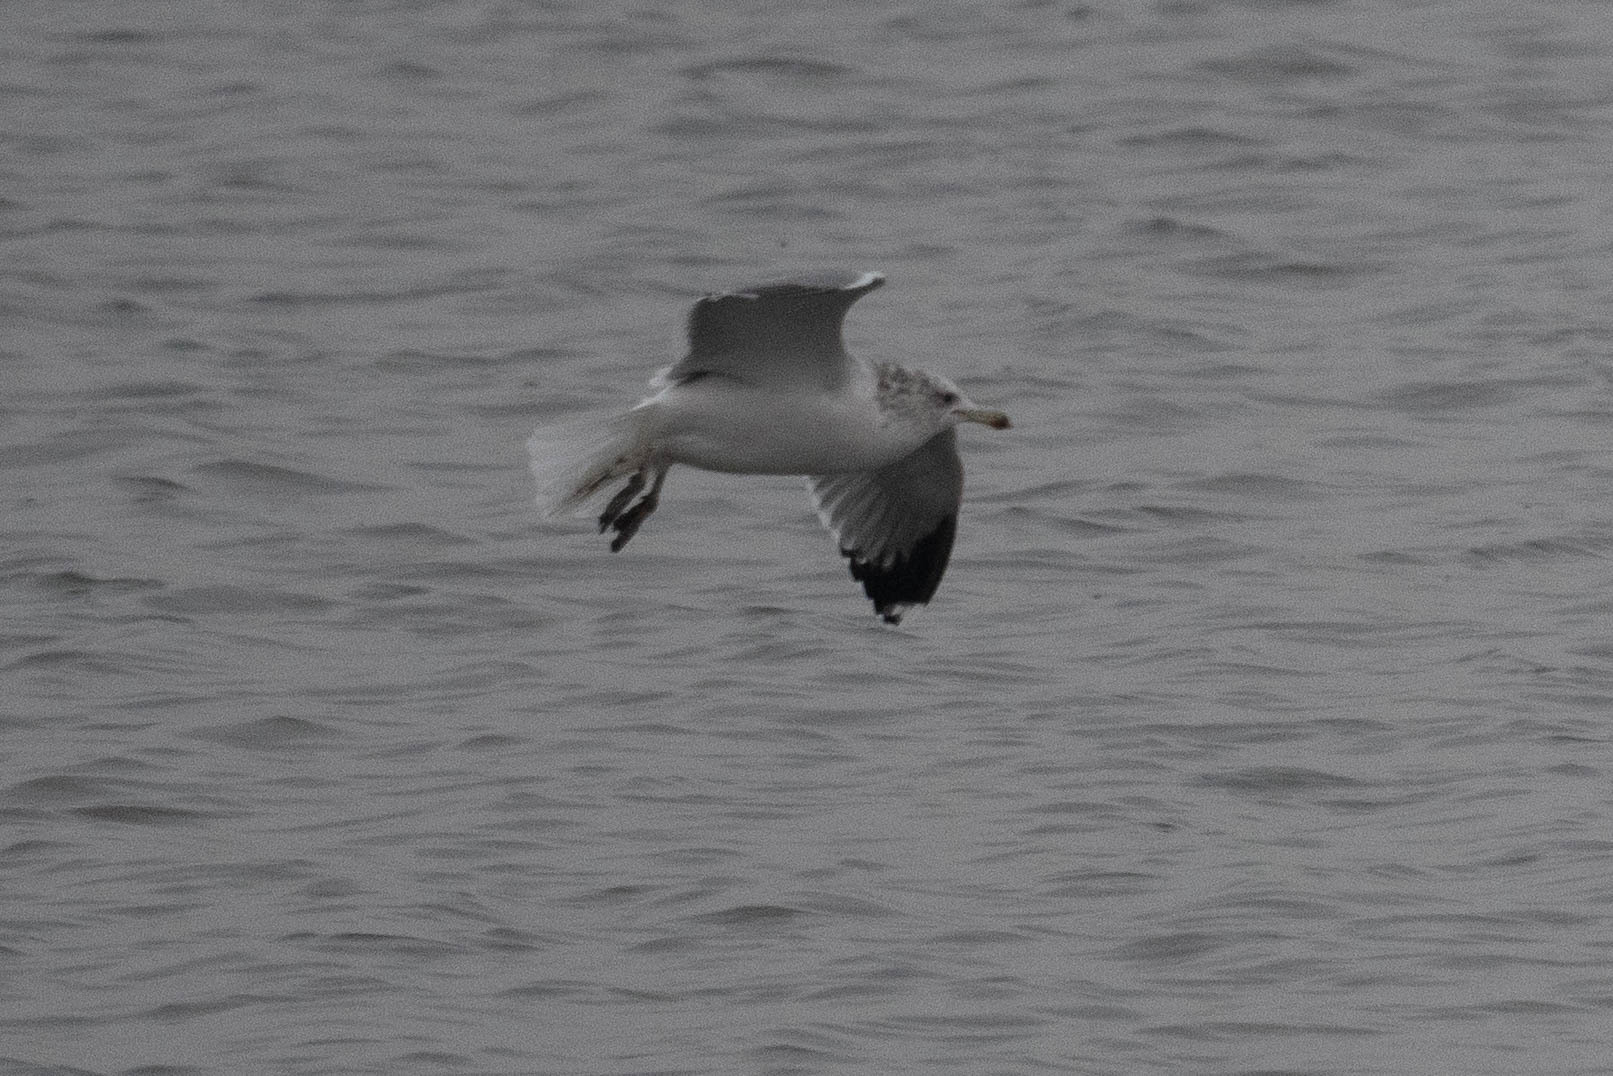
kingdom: Animalia
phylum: Chordata
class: Aves
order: Charadriiformes
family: Laridae
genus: Larus
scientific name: Larus californicus
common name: California gull
